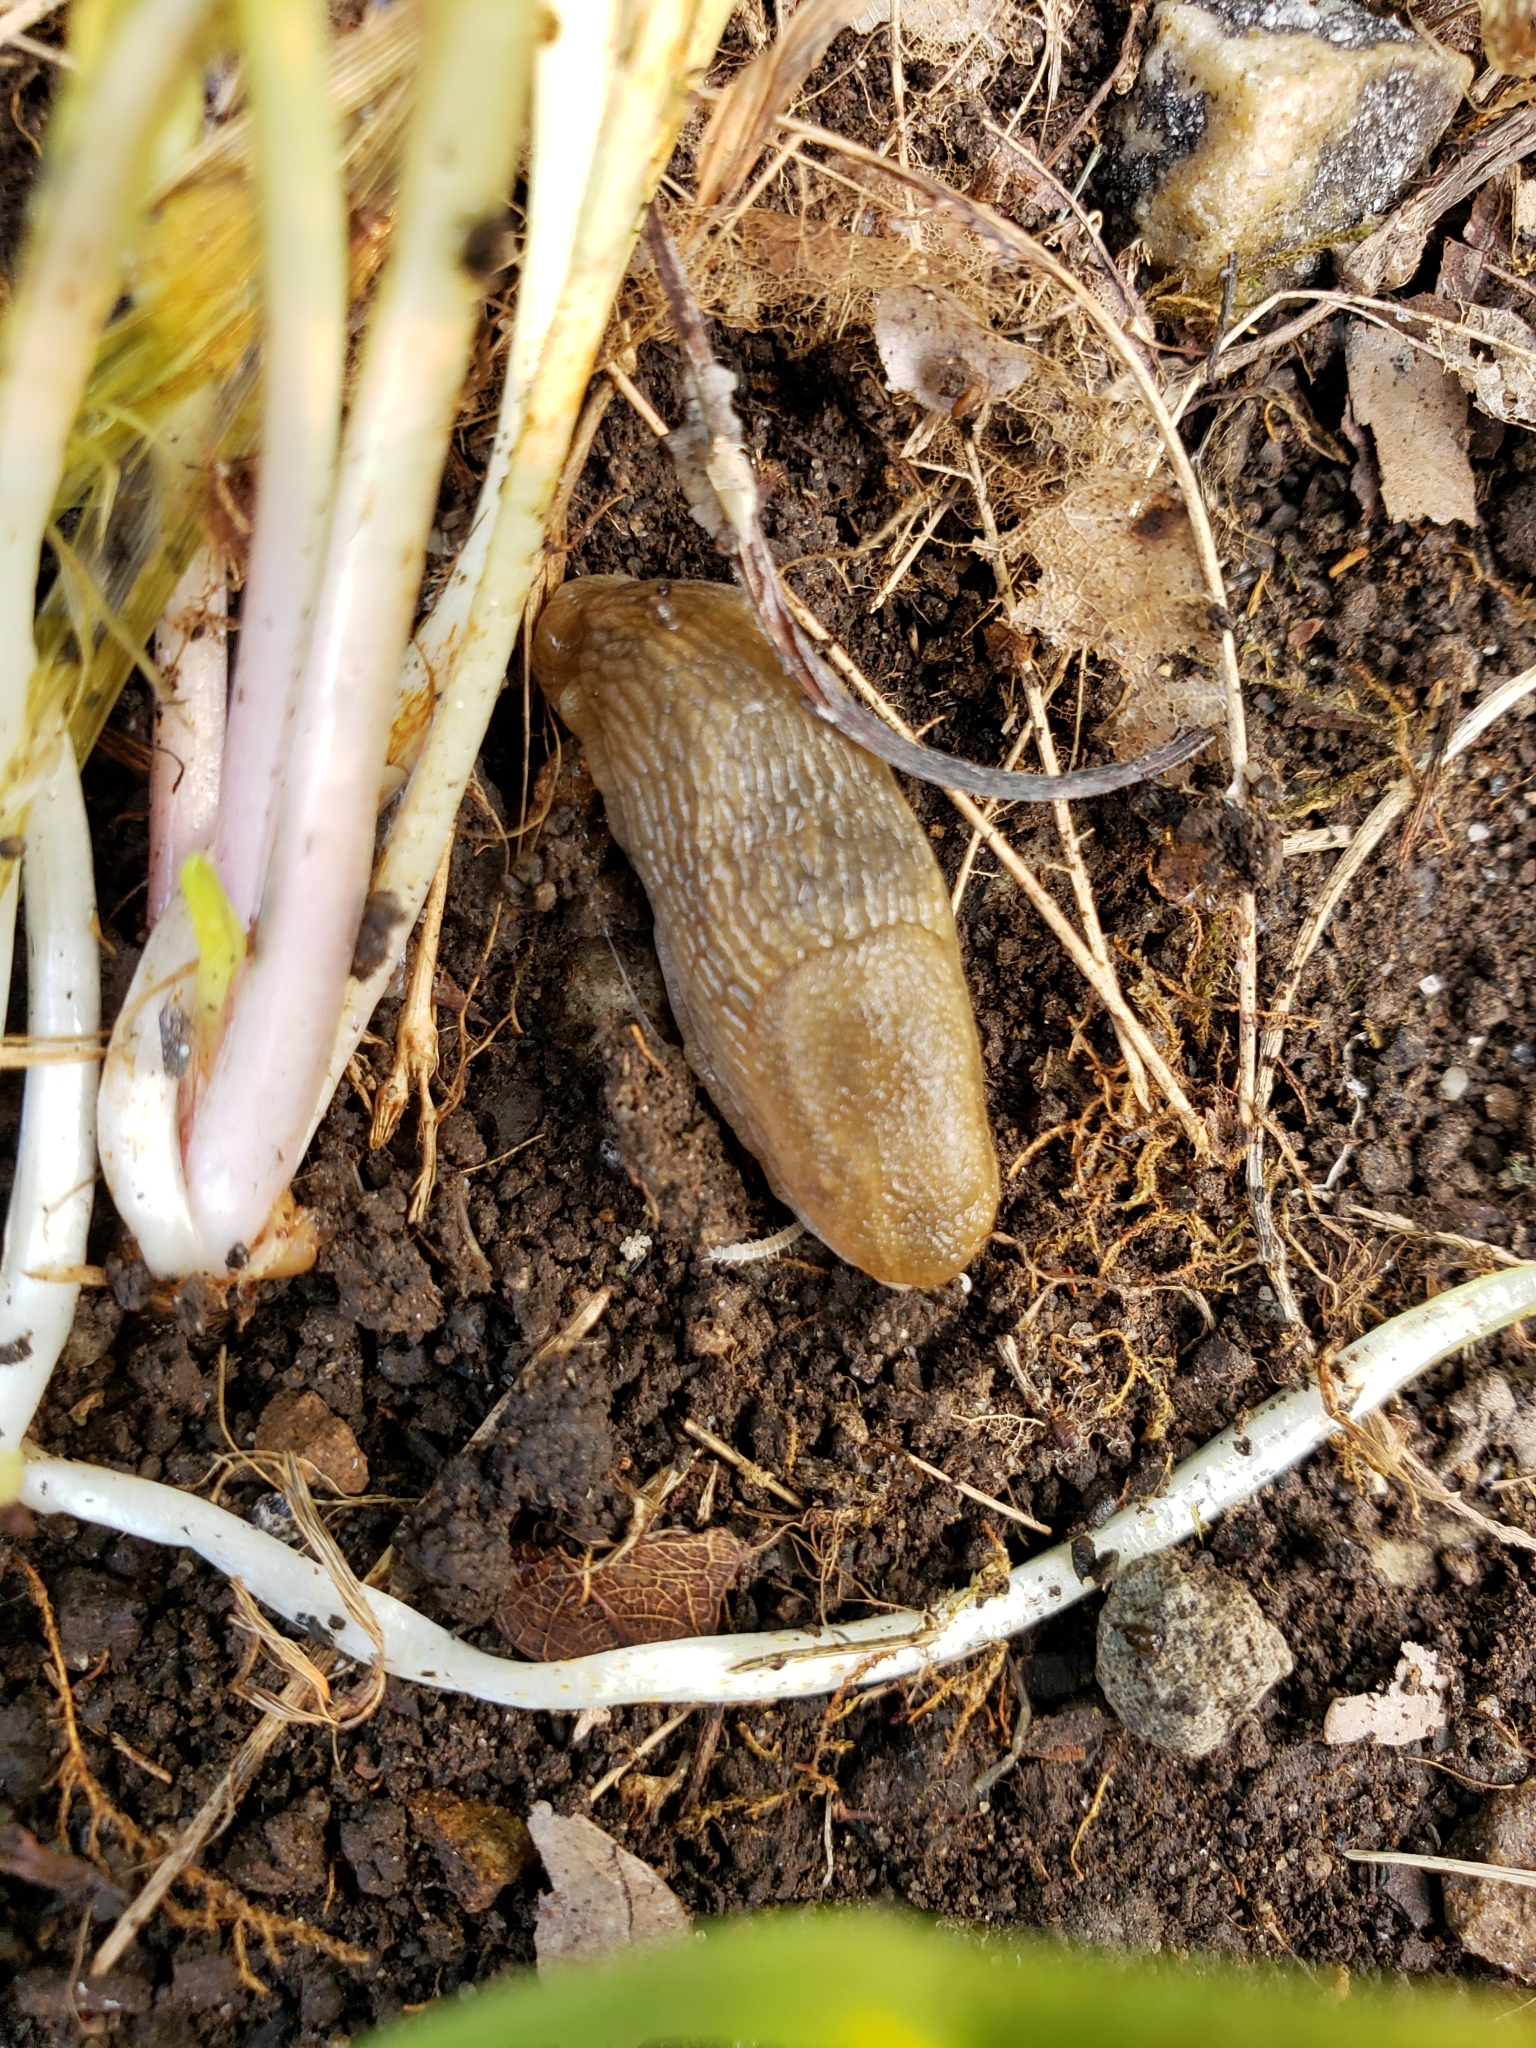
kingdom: Animalia
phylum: Mollusca
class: Gastropoda
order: Stylommatophora
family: Arionidae
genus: Arion
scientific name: Arion subfuscus
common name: Dusky arion
